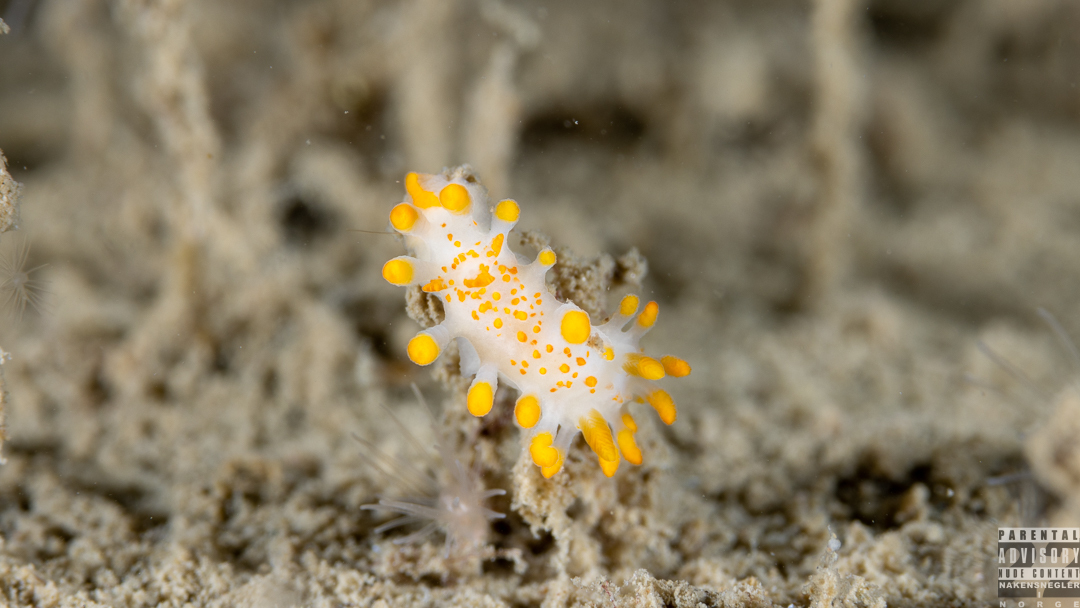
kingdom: Animalia
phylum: Mollusca
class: Gastropoda
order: Nudibranchia
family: Polyceridae
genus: Limacia
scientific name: Limacia clavigera
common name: Orange-clubbed sea slug
